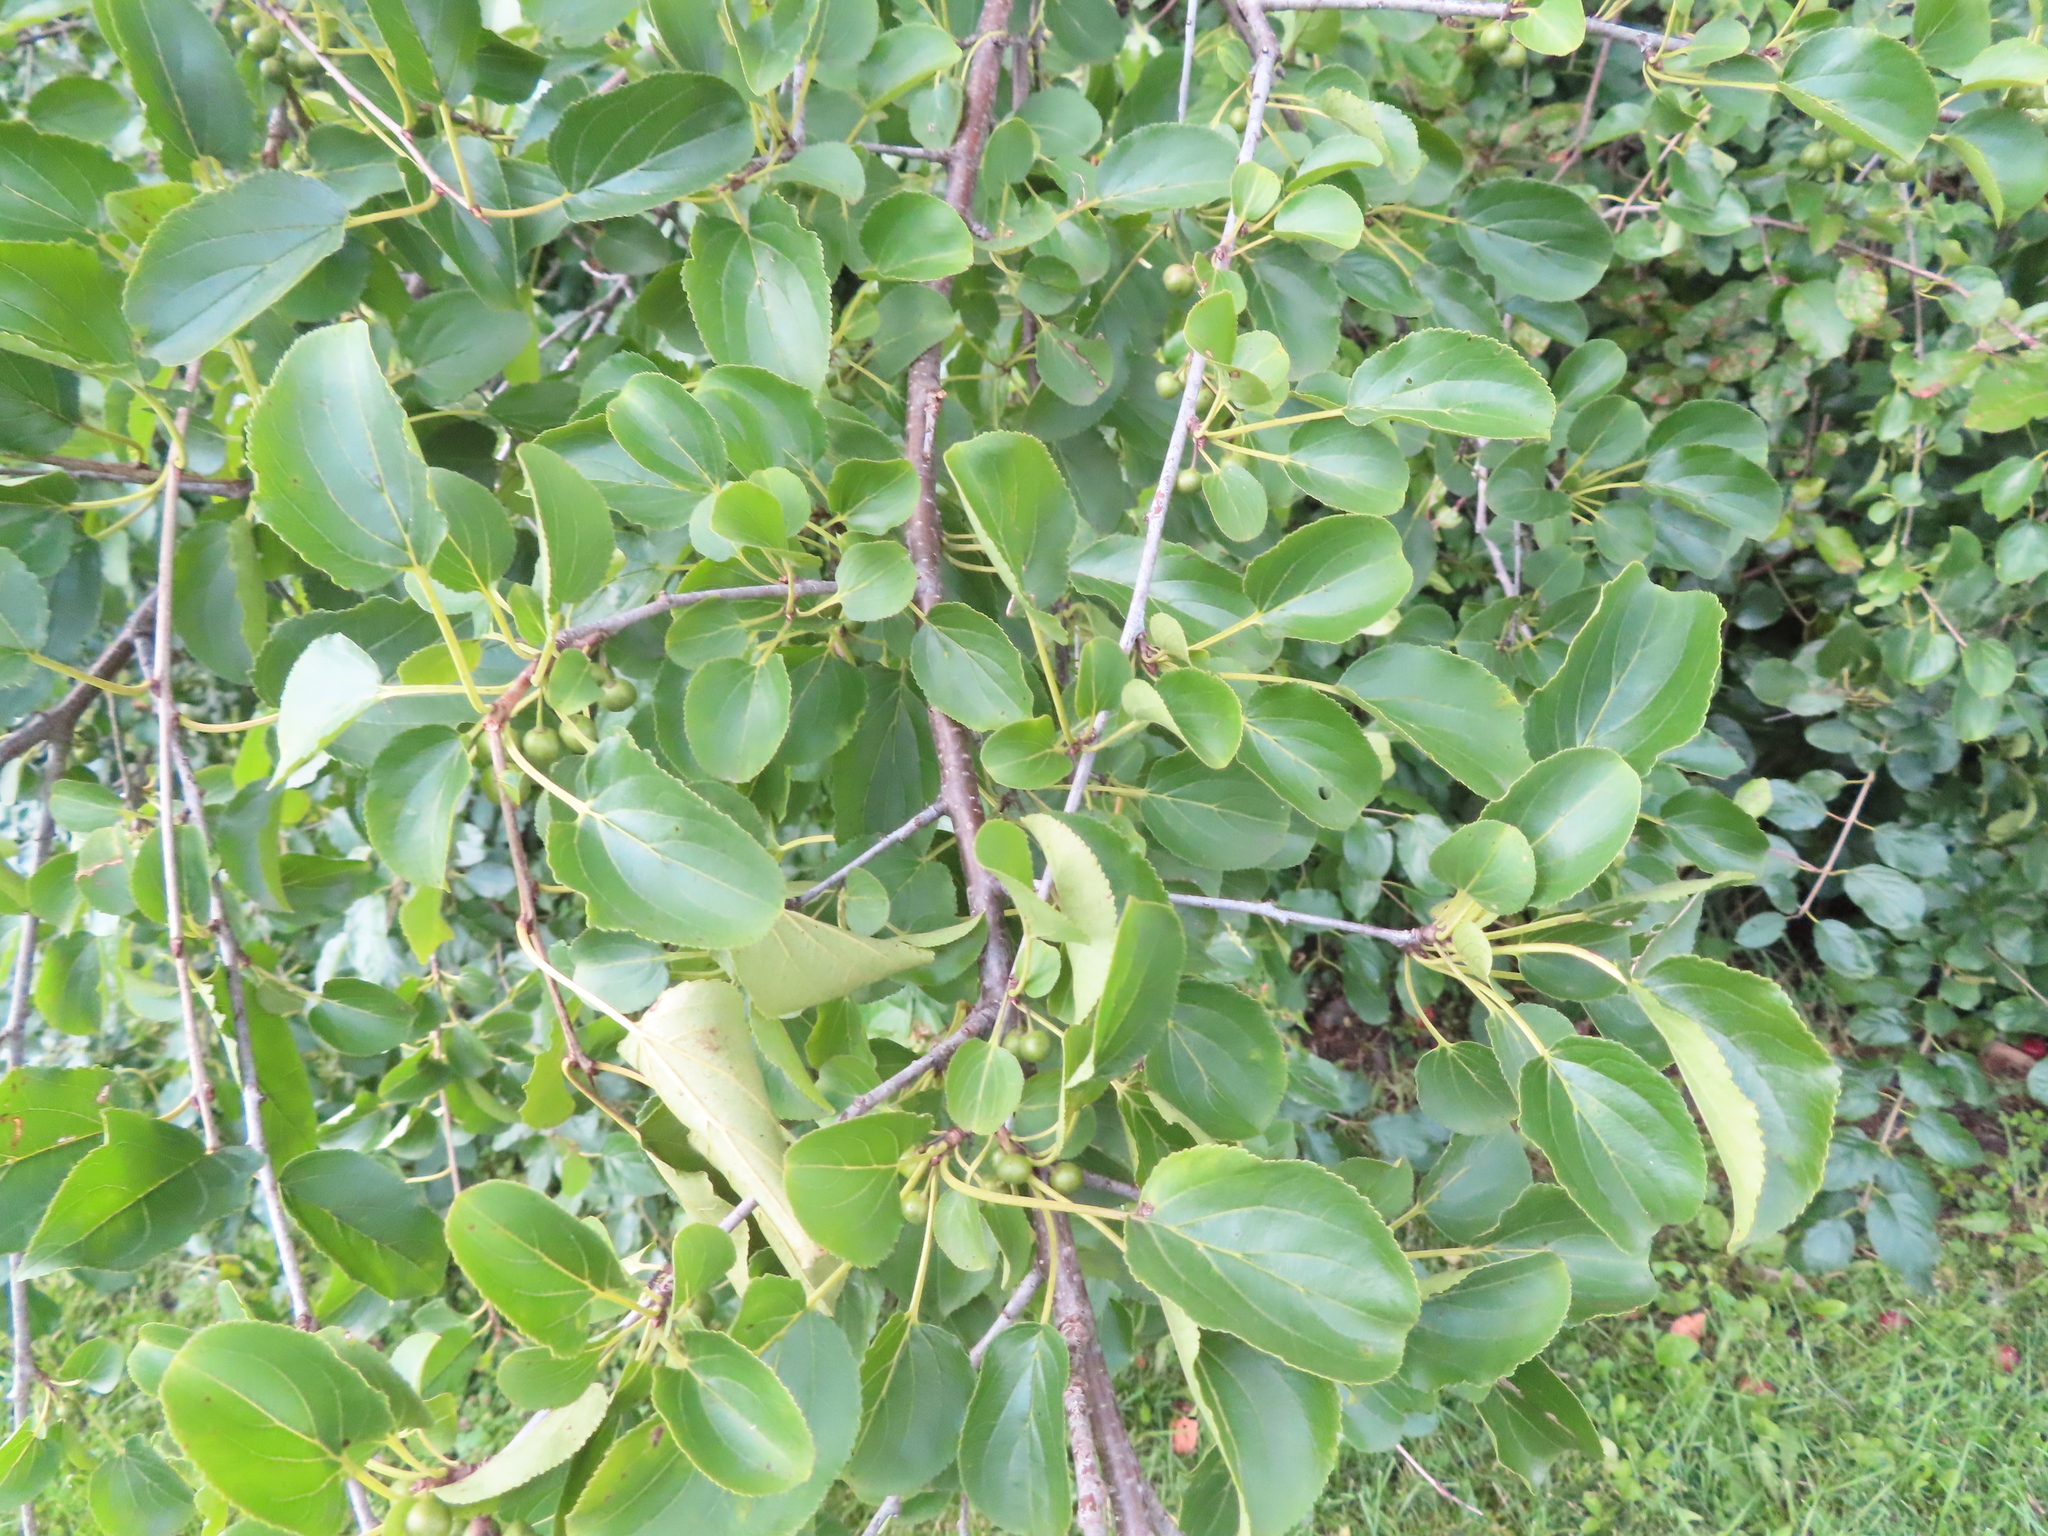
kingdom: Plantae
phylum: Tracheophyta
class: Magnoliopsida
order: Rosales
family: Rhamnaceae
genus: Rhamnus
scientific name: Rhamnus cathartica
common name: Common buckthorn
